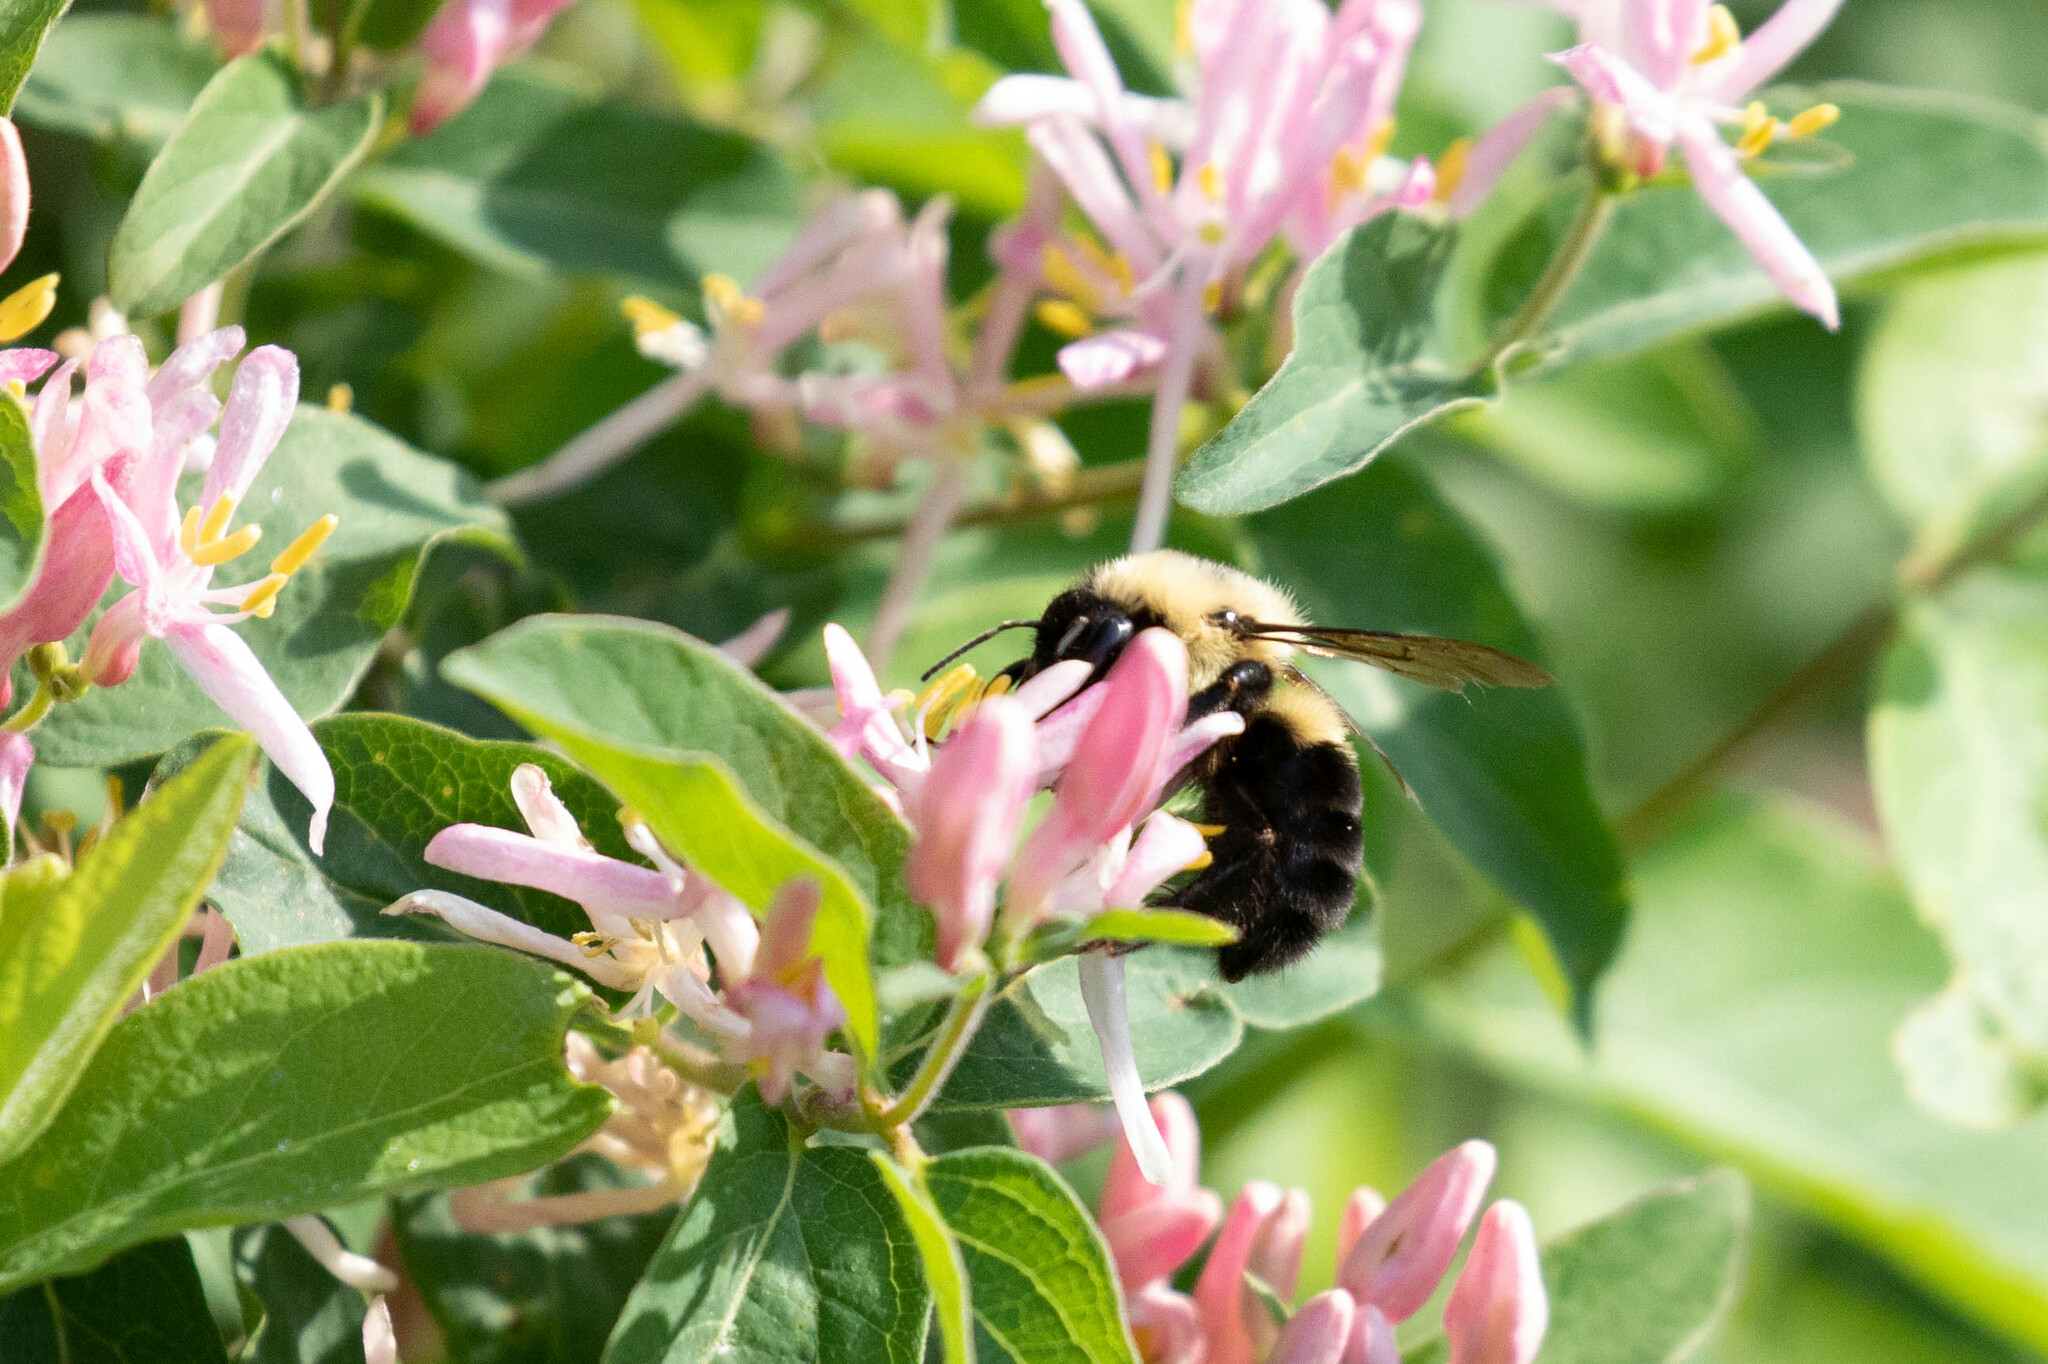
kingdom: Animalia
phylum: Arthropoda
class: Insecta
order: Hymenoptera
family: Apidae
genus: Bombus
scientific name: Bombus bimaculatus
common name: Two-spotted bumble bee
